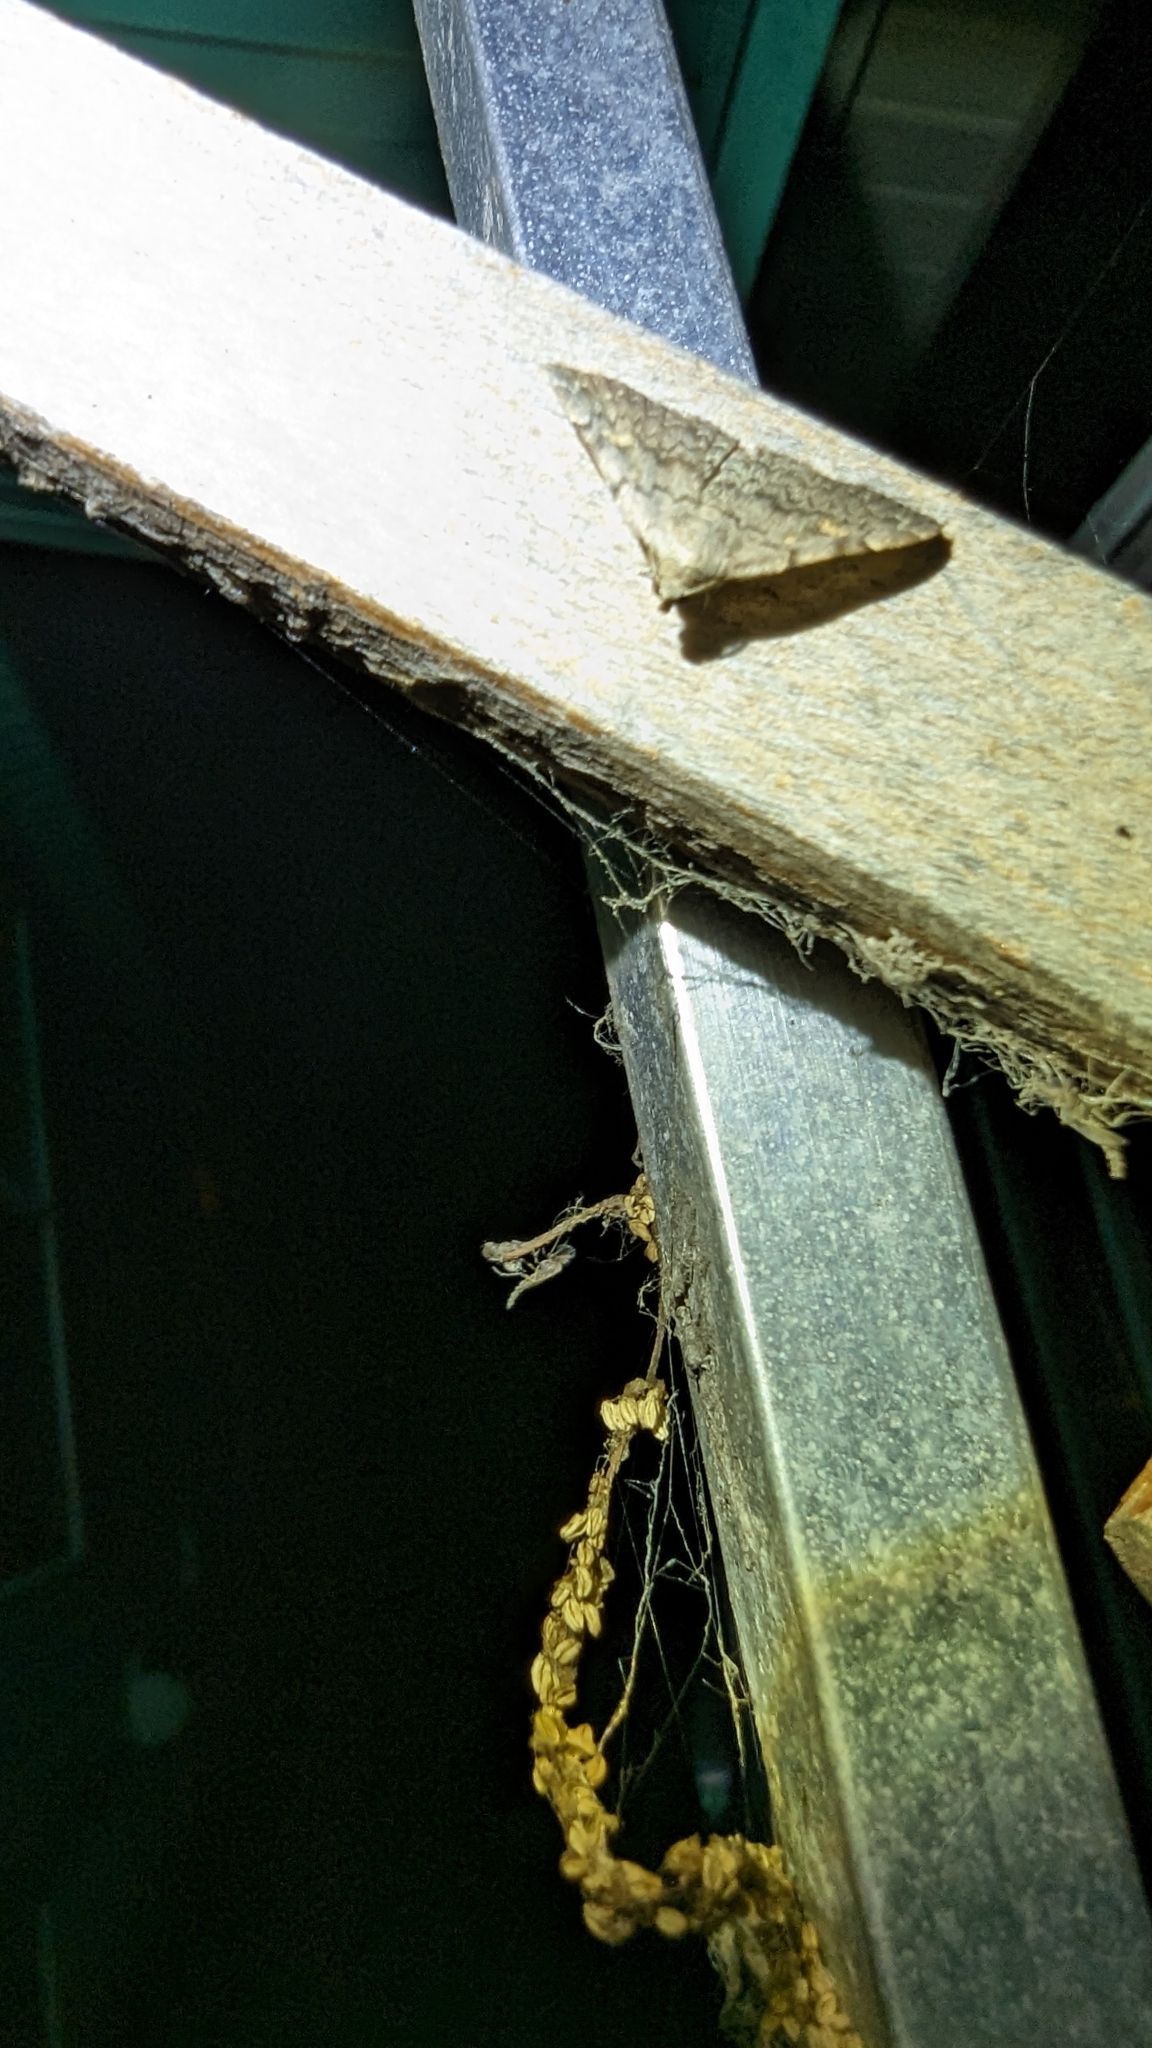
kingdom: Animalia
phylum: Arthropoda
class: Insecta
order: Lepidoptera
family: Erebidae
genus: Idia
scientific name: Idia aemula
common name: Common idia moth
